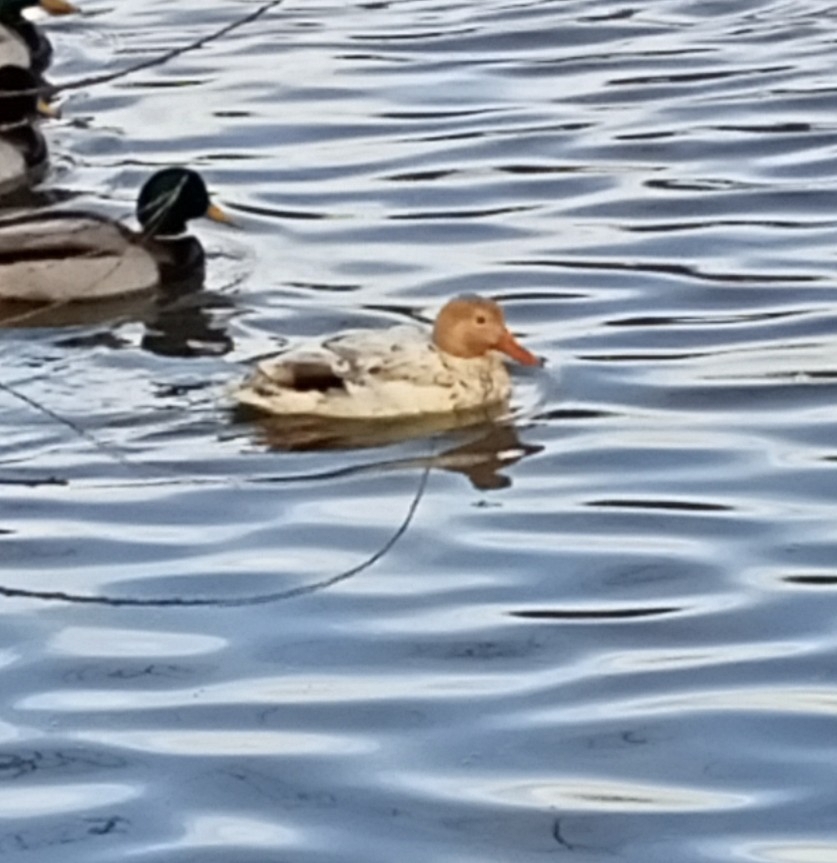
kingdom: Animalia
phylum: Chordata
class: Aves
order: Anseriformes
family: Anatidae
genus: Anas
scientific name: Anas platyrhynchos
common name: Mallard
